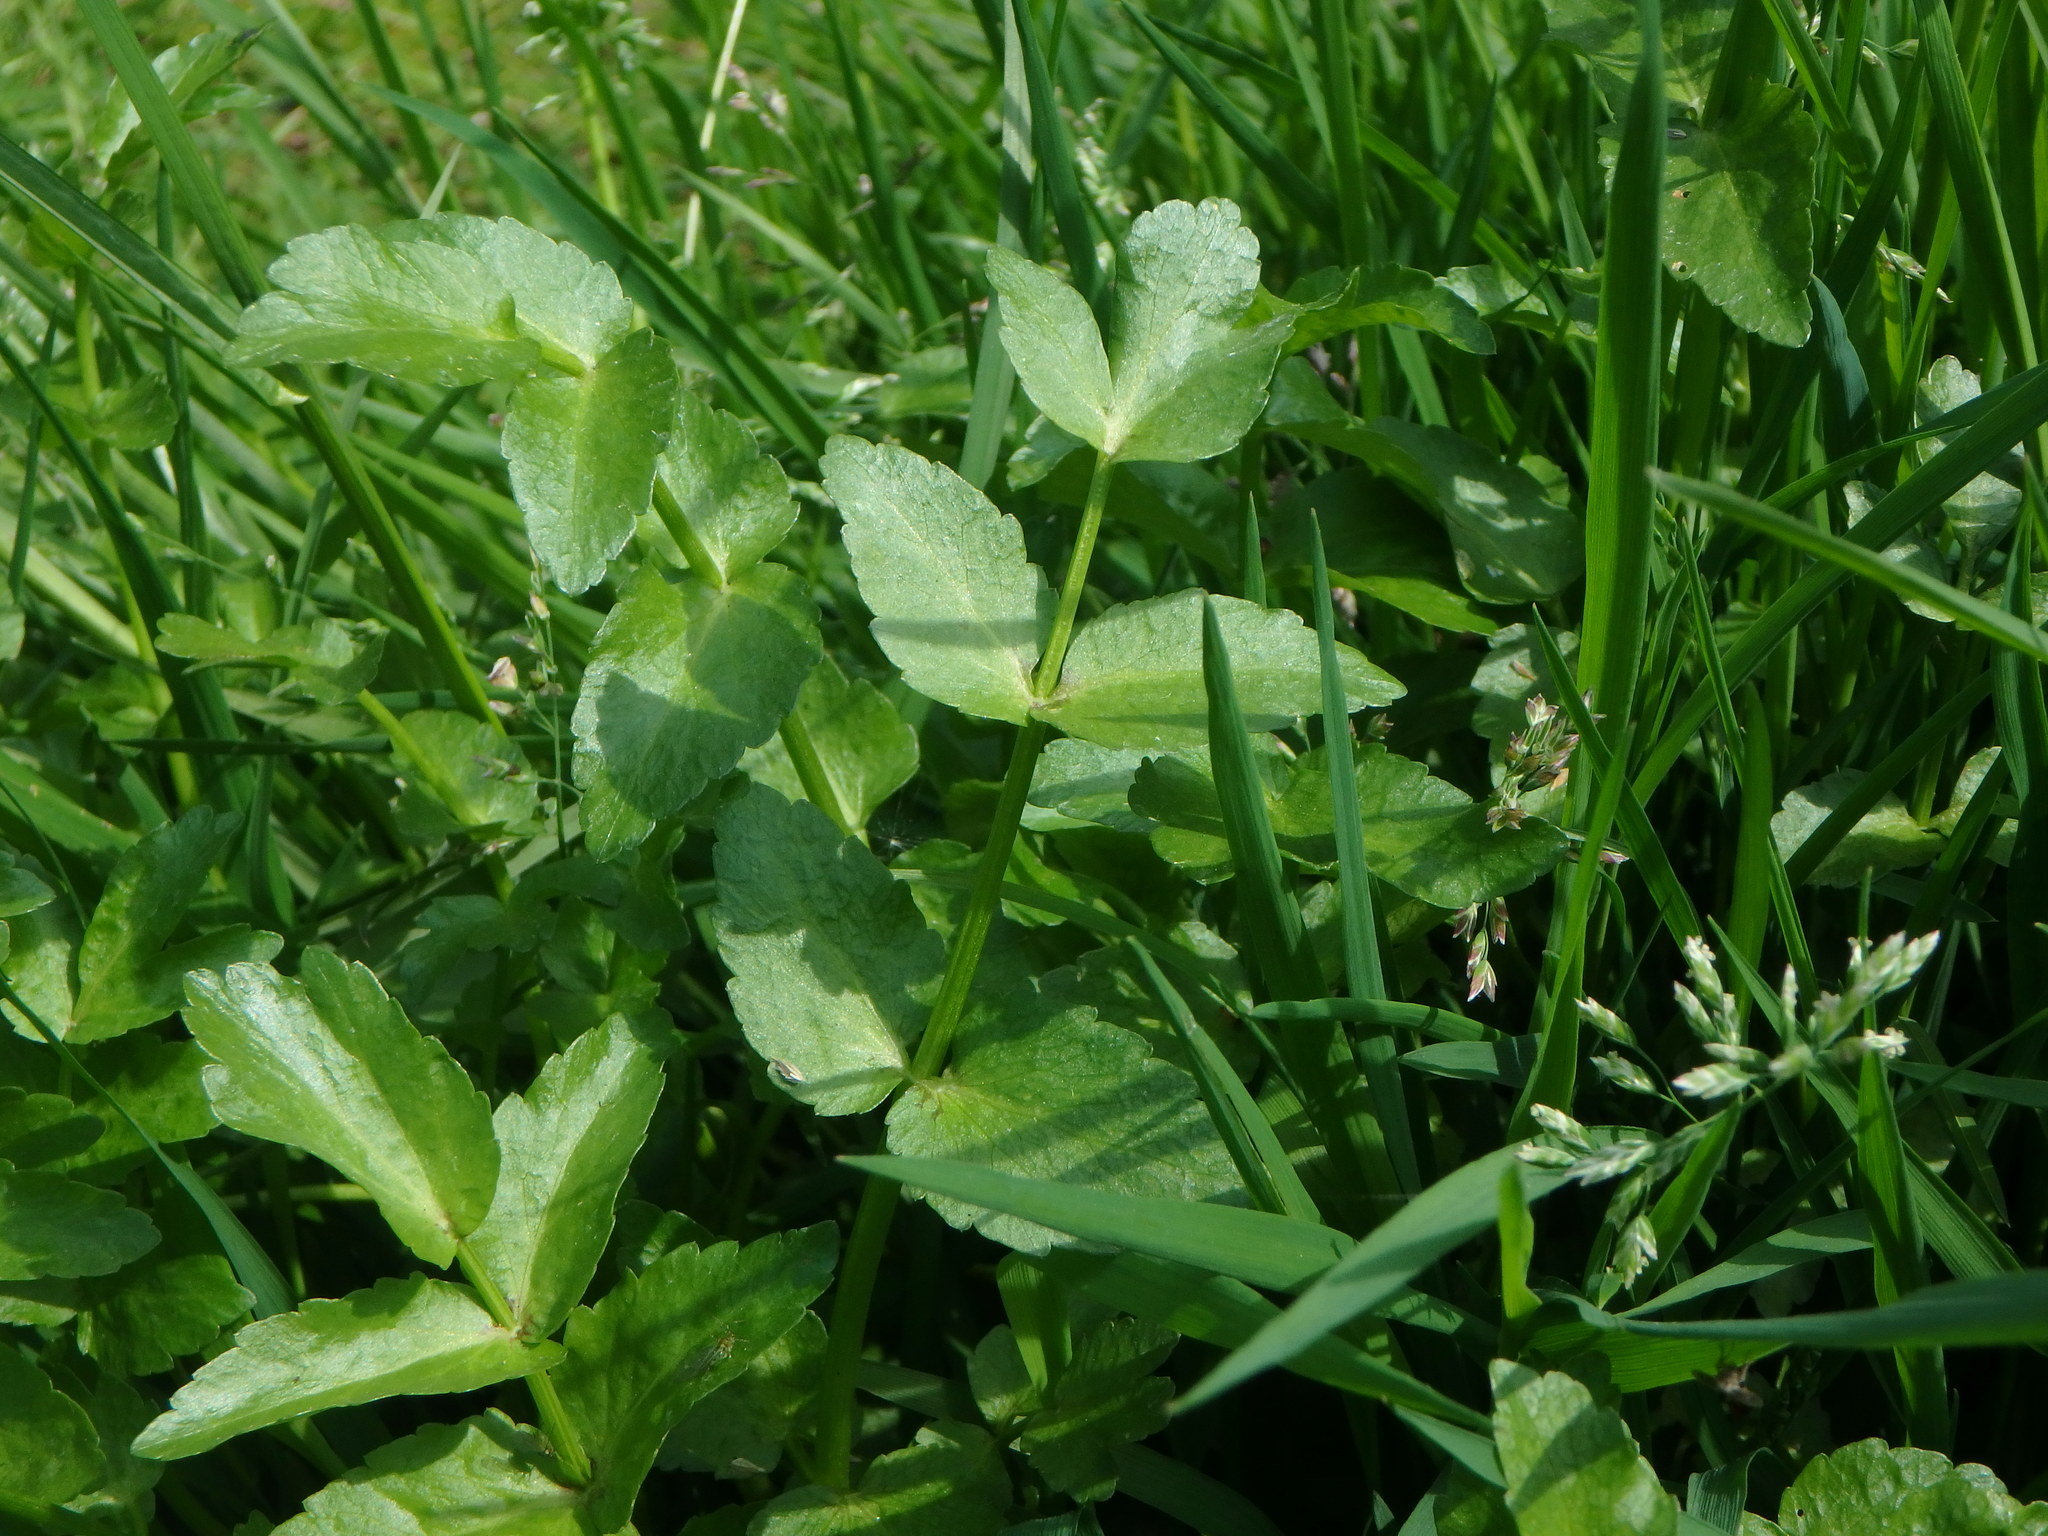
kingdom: Plantae
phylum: Tracheophyta
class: Magnoliopsida
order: Apiales
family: Apiaceae
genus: Helosciadium
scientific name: Helosciadium nodiflorum
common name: Fool's-watercress
